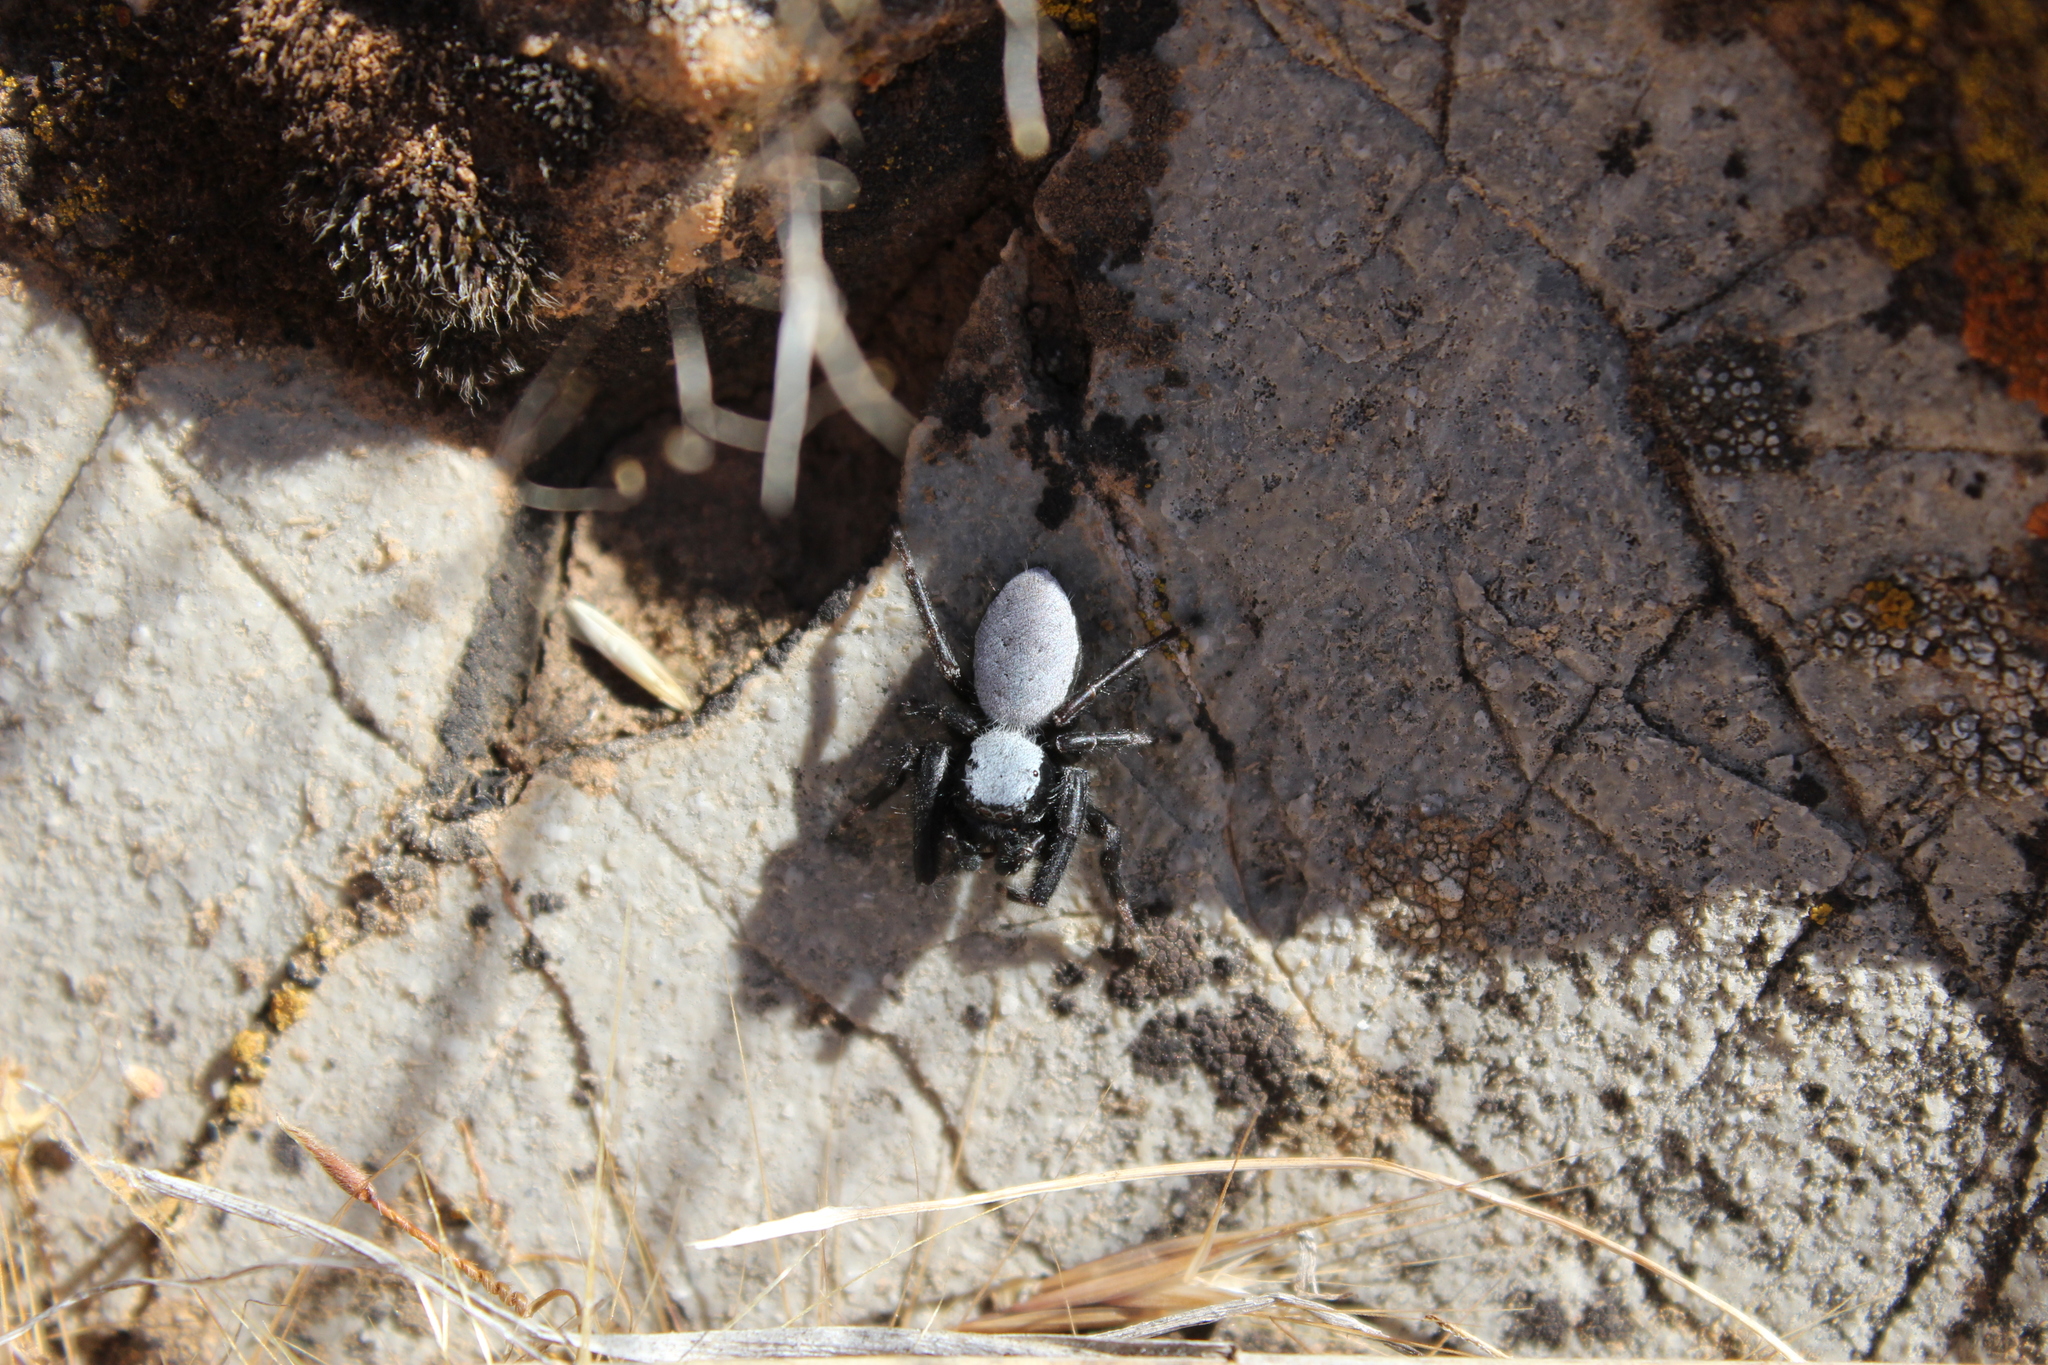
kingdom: Animalia
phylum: Arthropoda
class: Arachnida
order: Araneae
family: Salticidae
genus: Phidippus
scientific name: Phidippus octopunctatus
